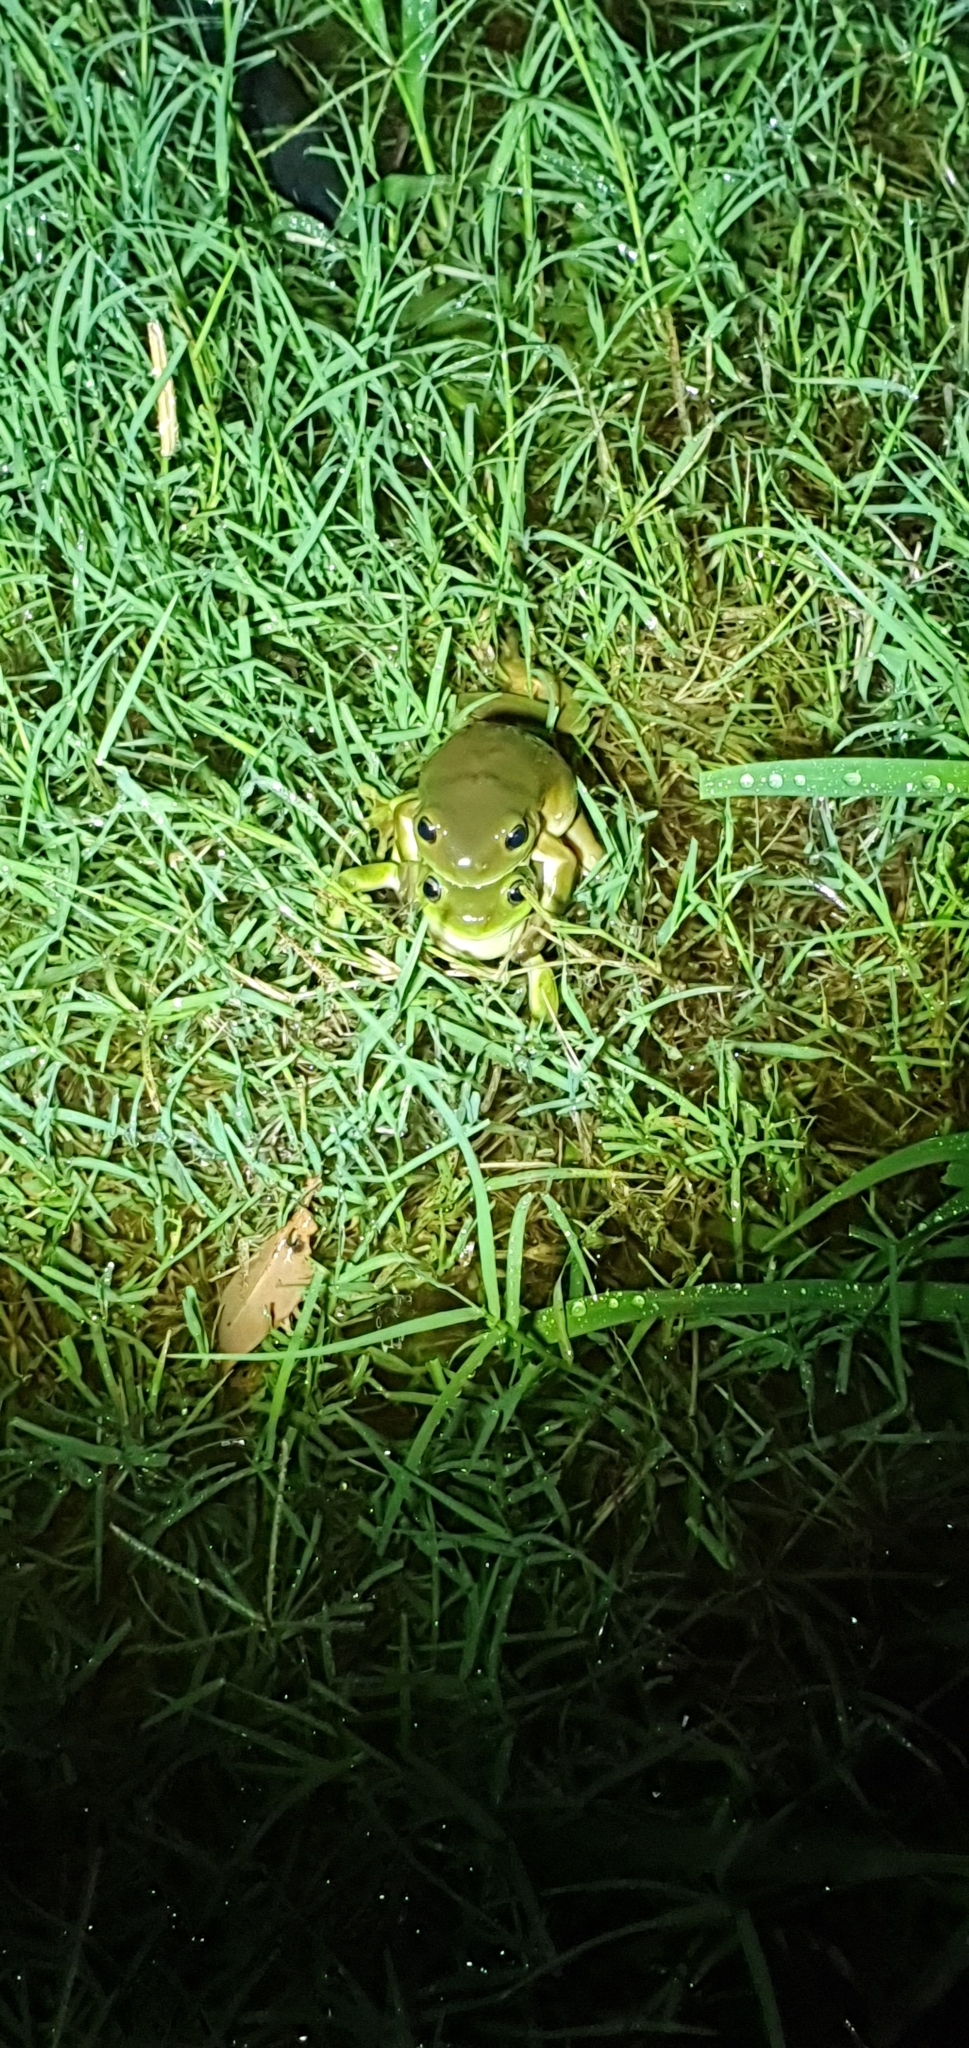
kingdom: Animalia
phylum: Chordata
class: Amphibia
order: Anura
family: Pelodryadidae
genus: Ranoidea
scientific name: Ranoidea caerulea
